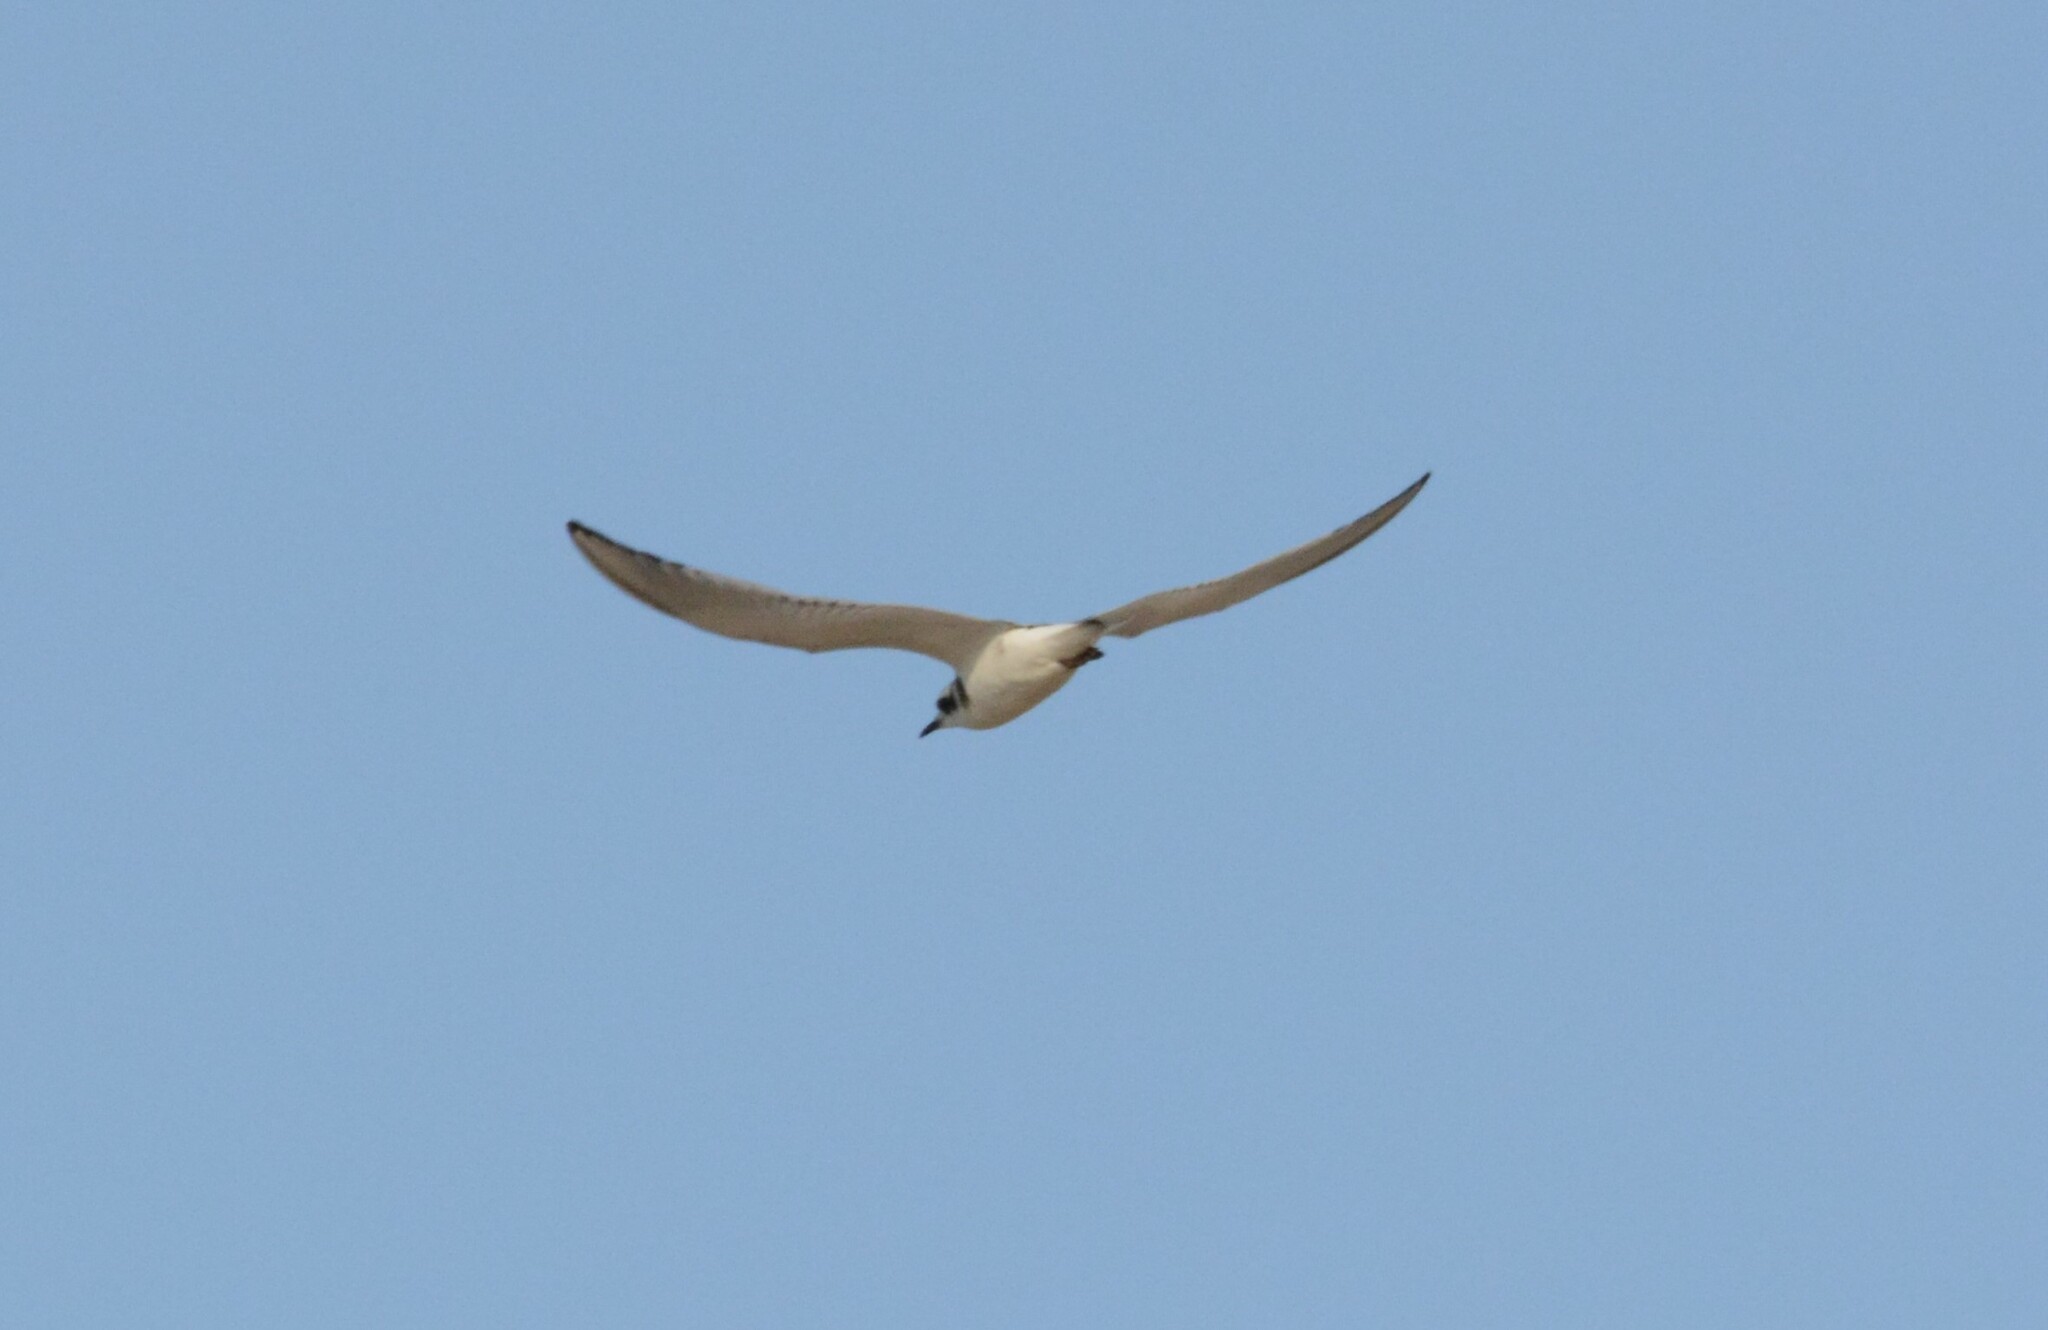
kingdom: Animalia
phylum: Chordata
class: Aves
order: Charadriiformes
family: Laridae
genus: Chlidonias
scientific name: Chlidonias niger
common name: Black tern
